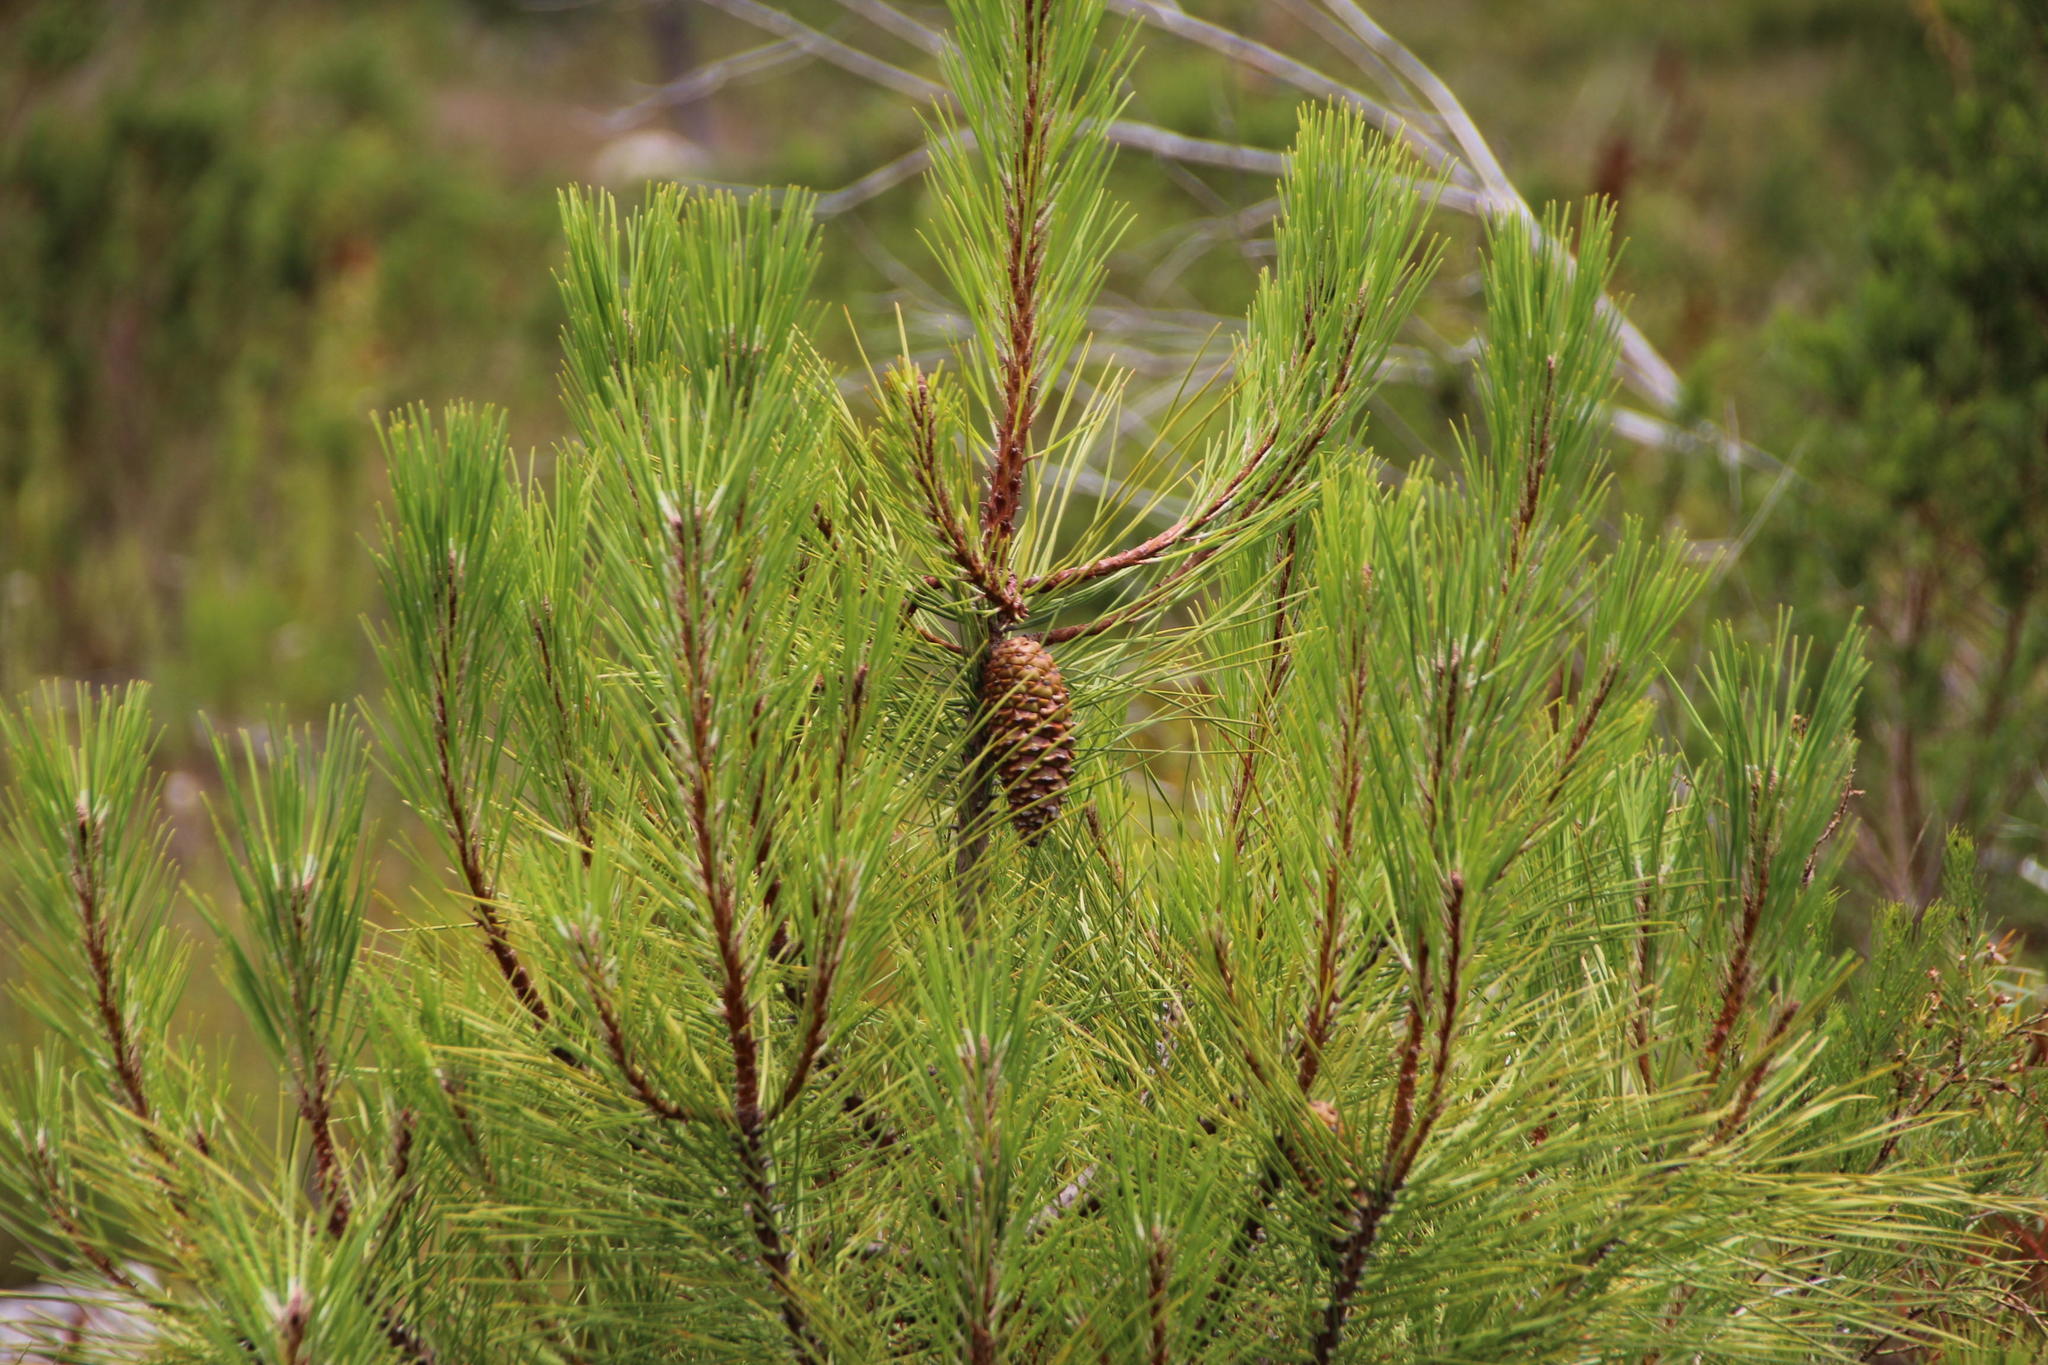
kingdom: Plantae
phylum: Tracheophyta
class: Pinopsida
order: Pinales
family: Pinaceae
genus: Pinus
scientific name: Pinus pinaster
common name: Maritime pine
